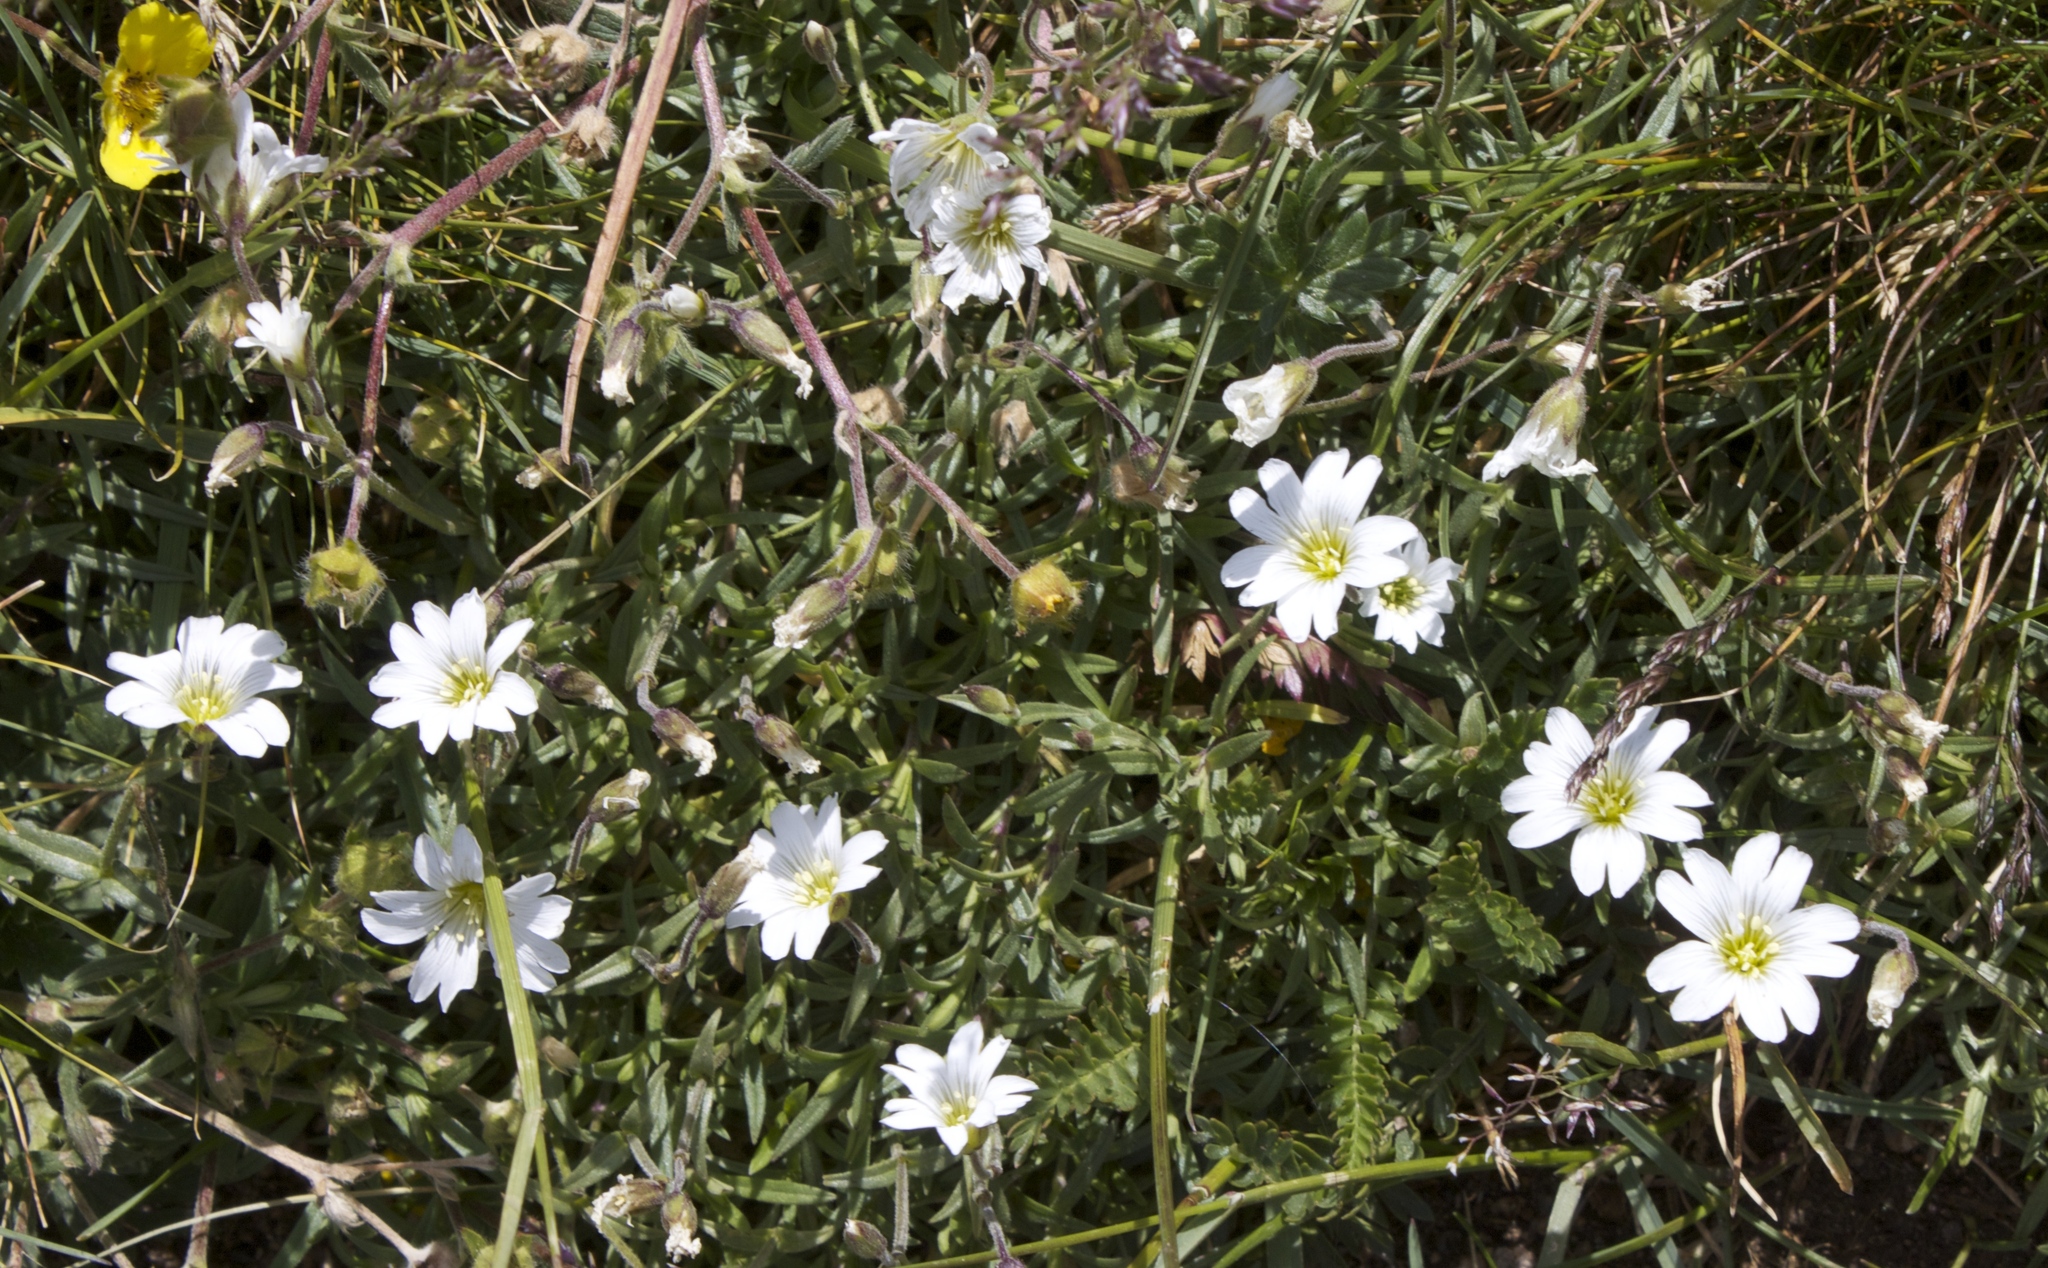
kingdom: Plantae
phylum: Tracheophyta
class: Magnoliopsida
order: Caryophyllales
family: Caryophyllaceae
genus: Cerastium
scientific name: Cerastium elongatum
